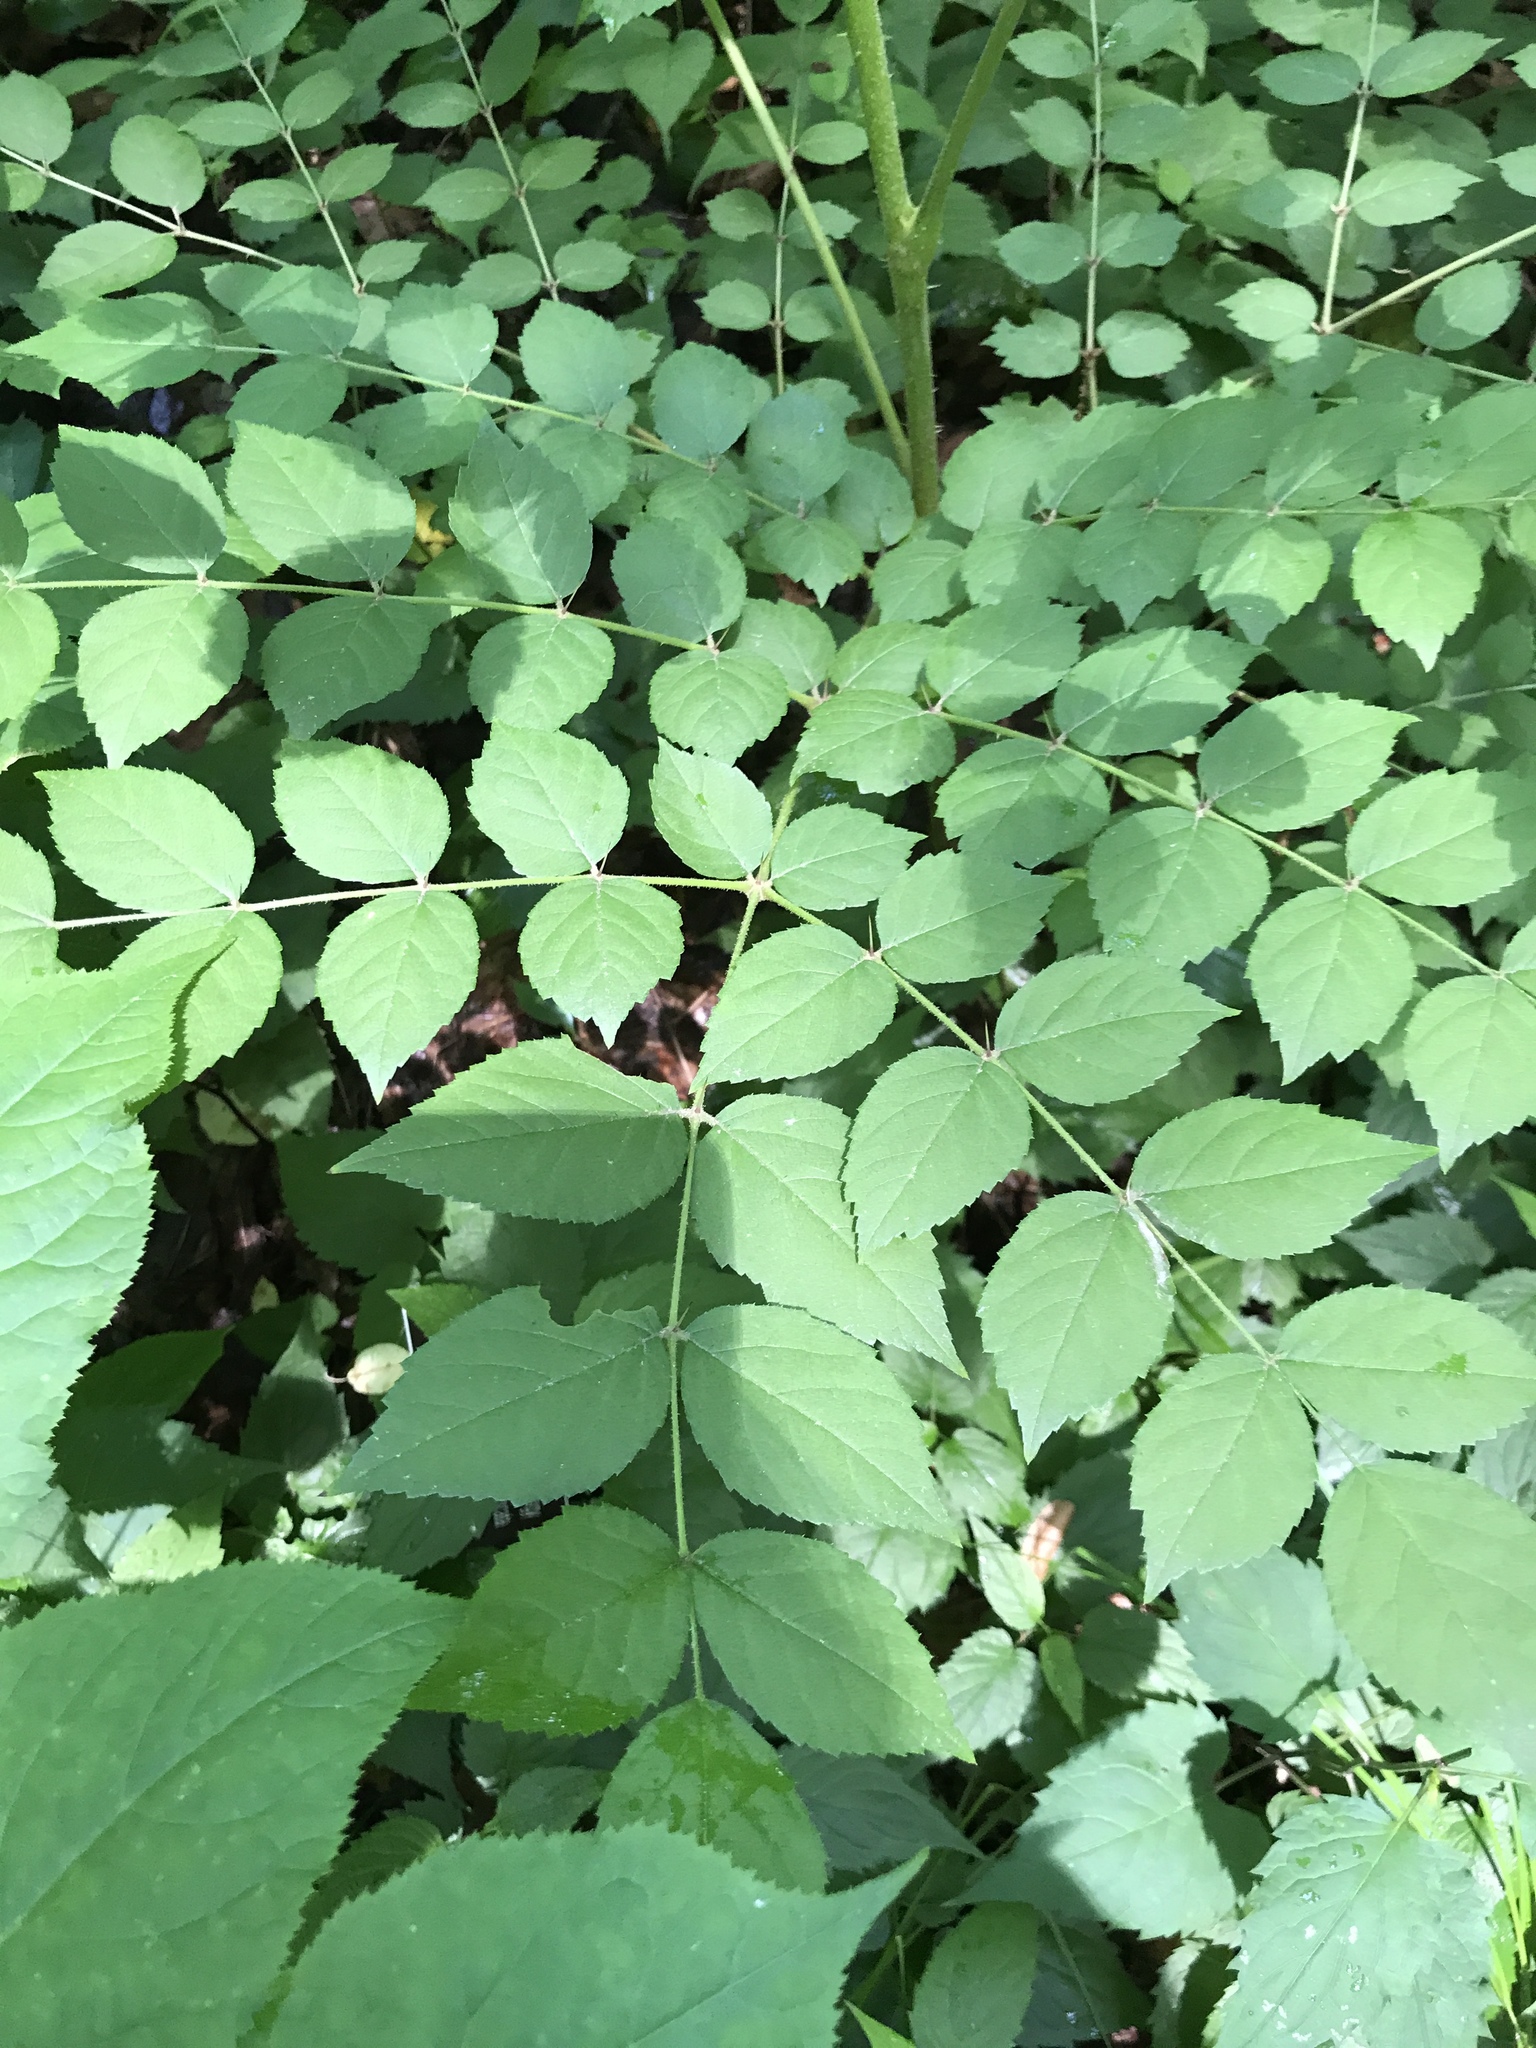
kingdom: Plantae
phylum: Tracheophyta
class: Magnoliopsida
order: Apiales
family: Araliaceae
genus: Aralia
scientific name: Aralia elata
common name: Japanese angelica-tree
